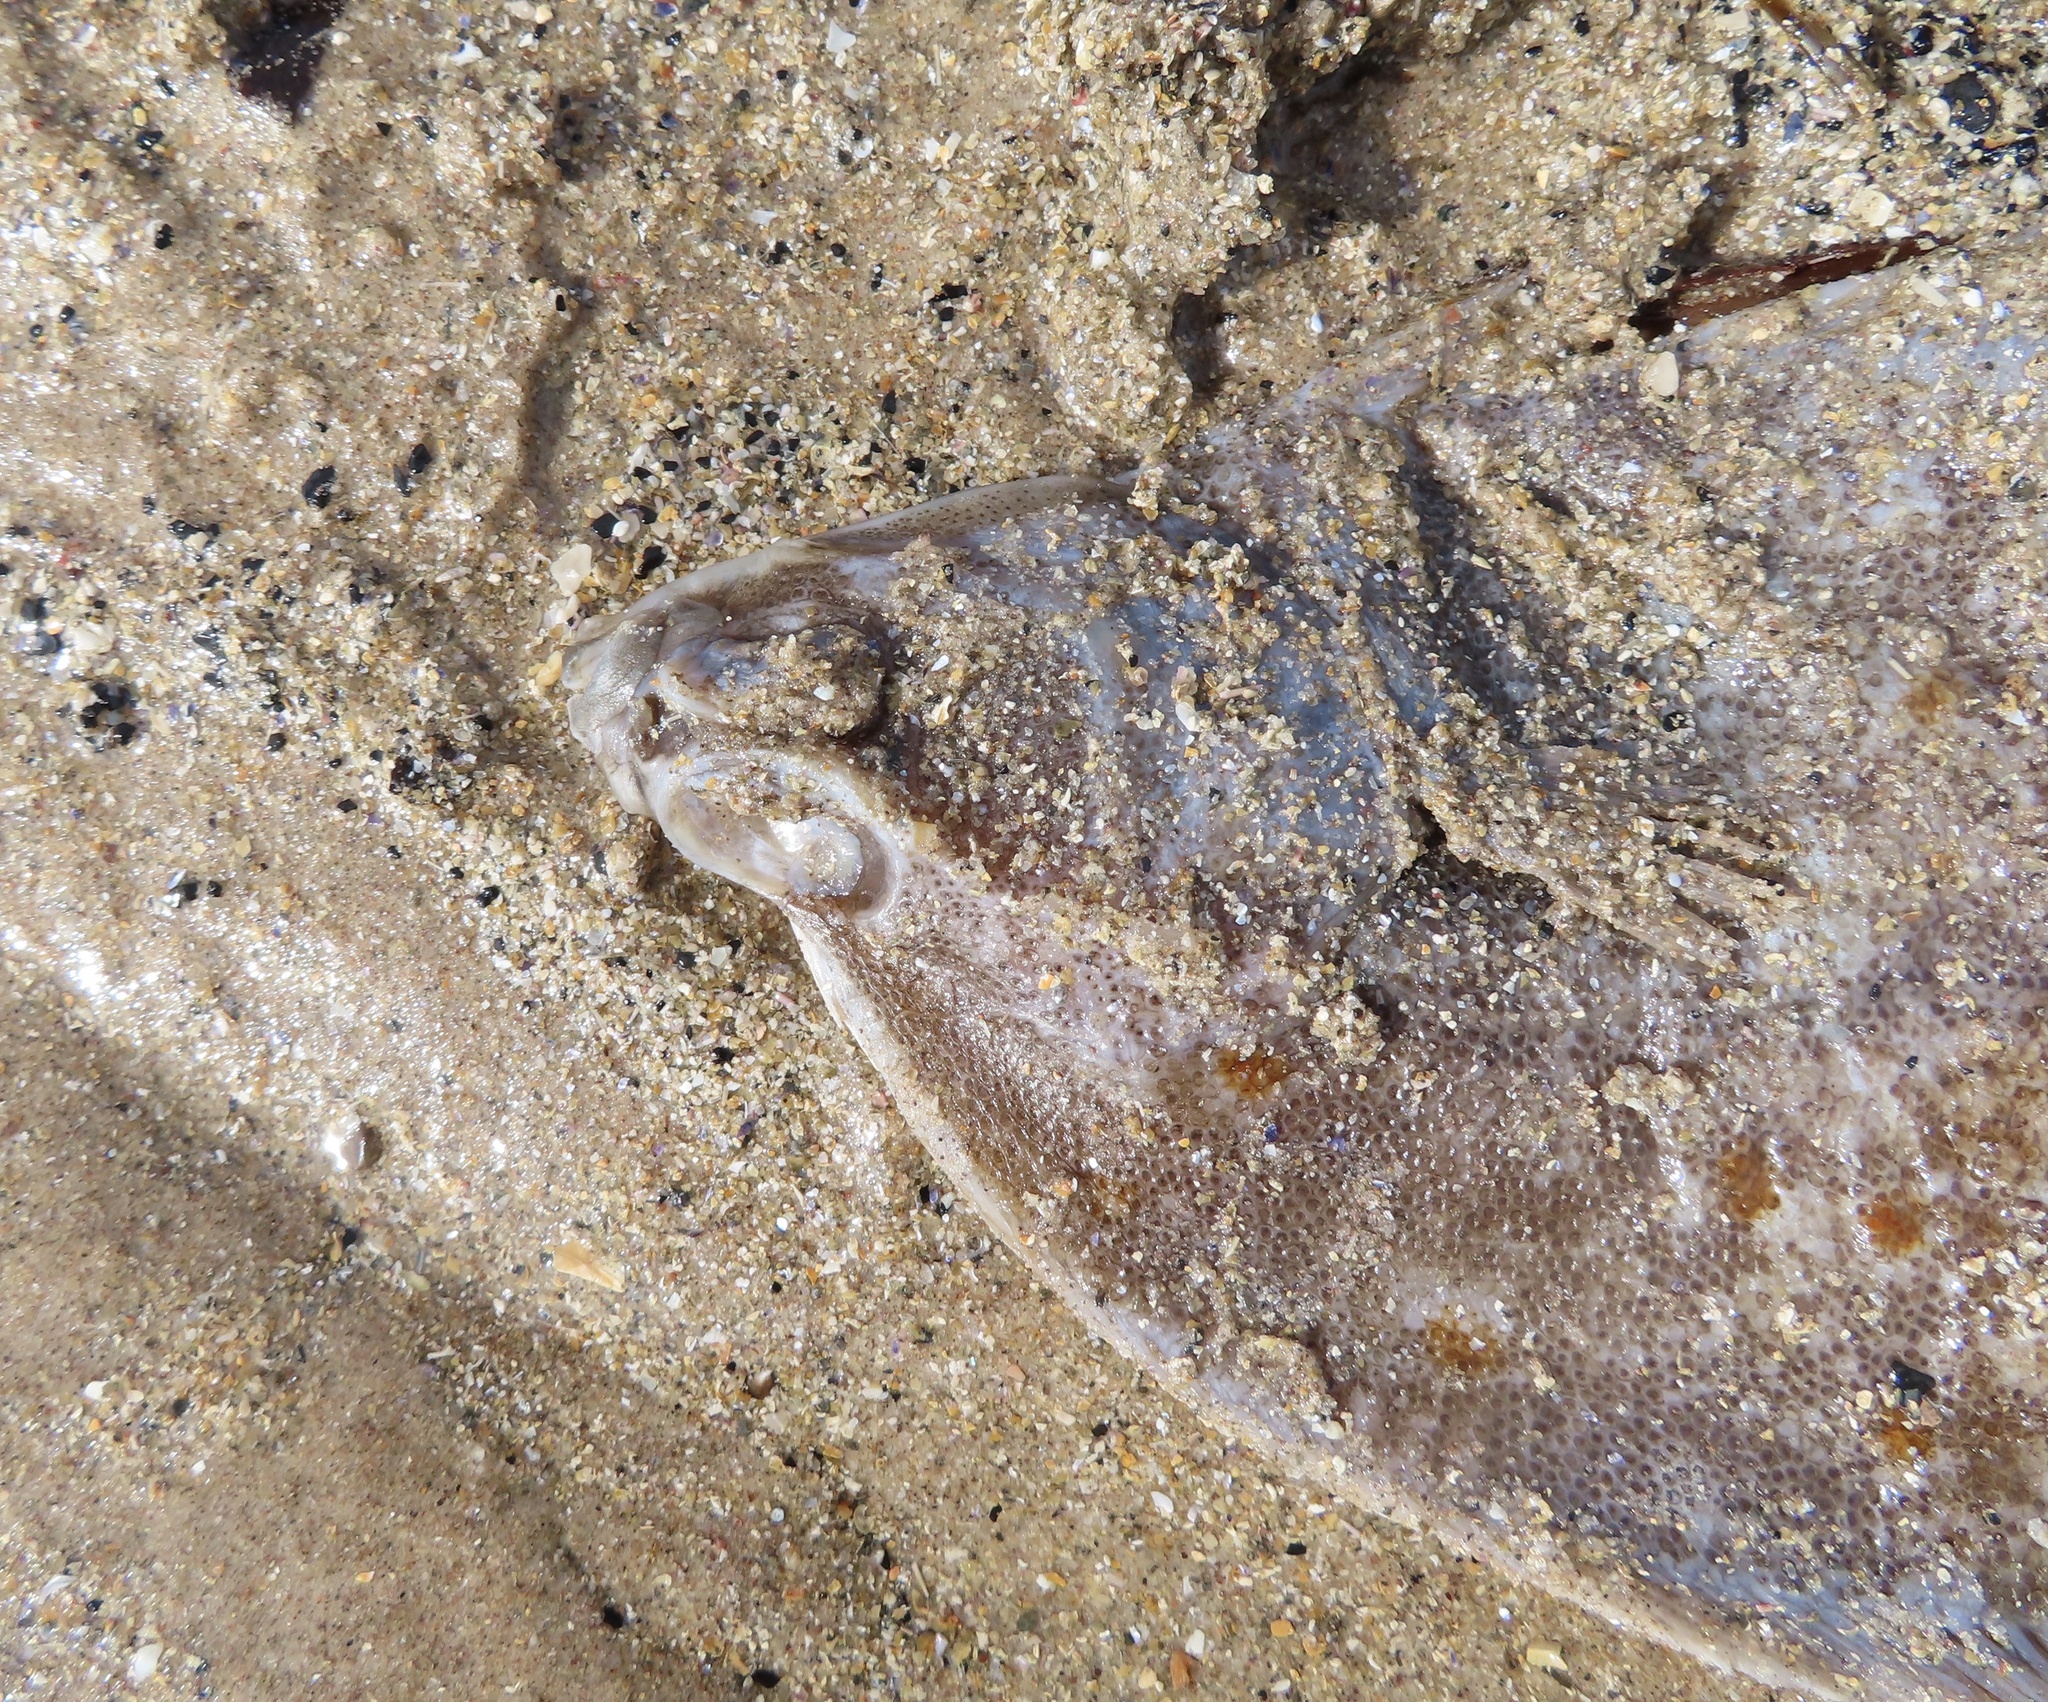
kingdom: Animalia
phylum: Chordata
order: Pleuronectiformes
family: Pleuronectidae
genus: Pleuronectes
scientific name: Pleuronectes platessa
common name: Plaice
